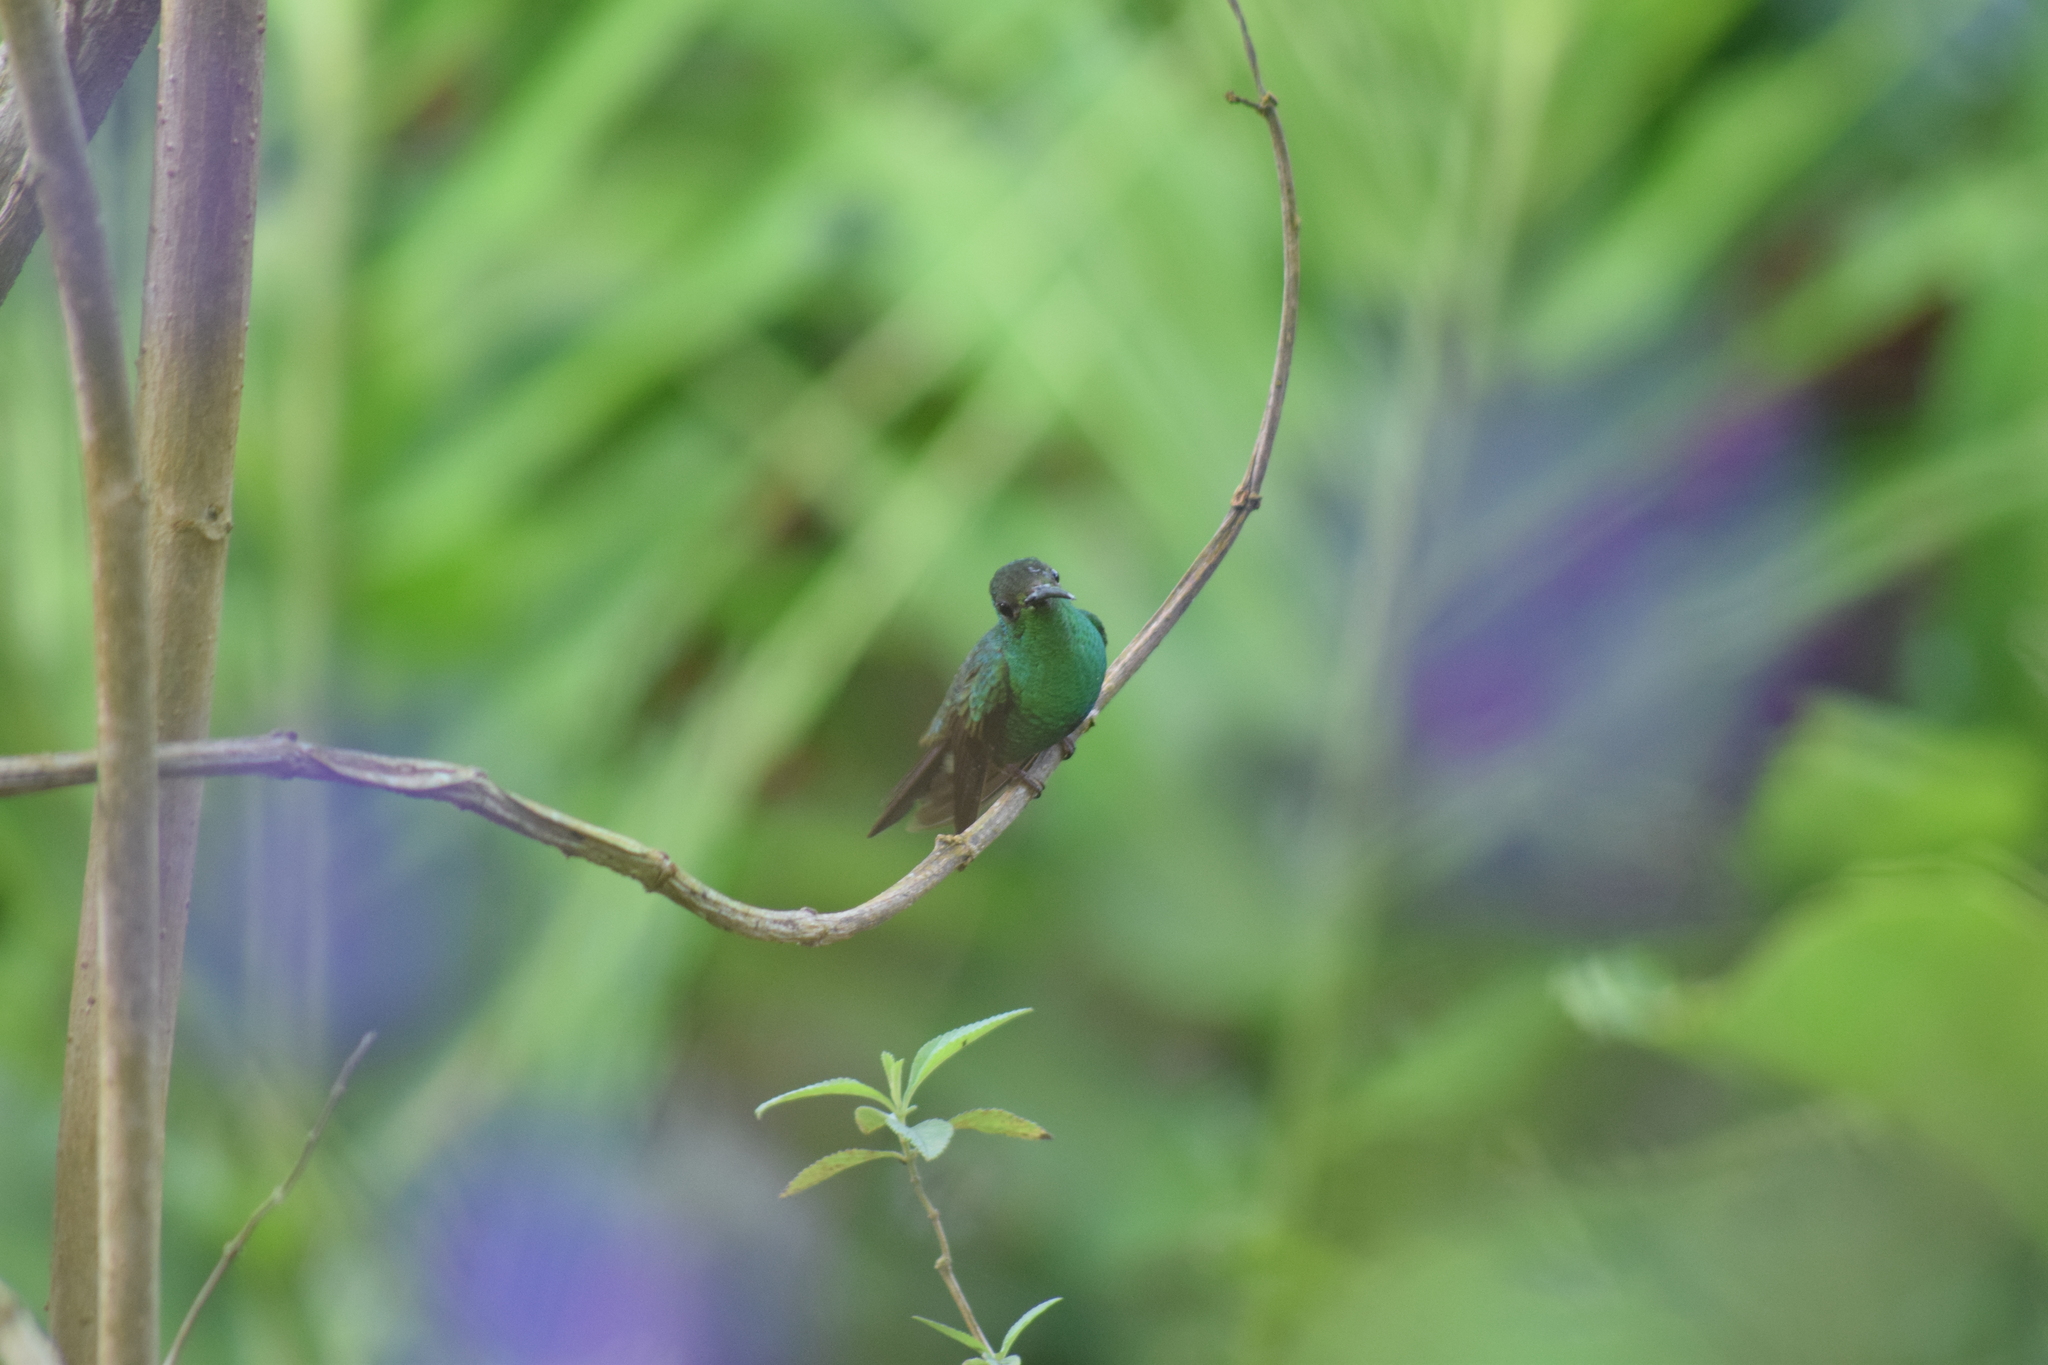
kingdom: Animalia
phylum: Chordata
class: Aves
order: Apodiformes
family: Trochilidae
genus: Chalybura
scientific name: Chalybura buffonii
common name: White-vented plumeleteer
